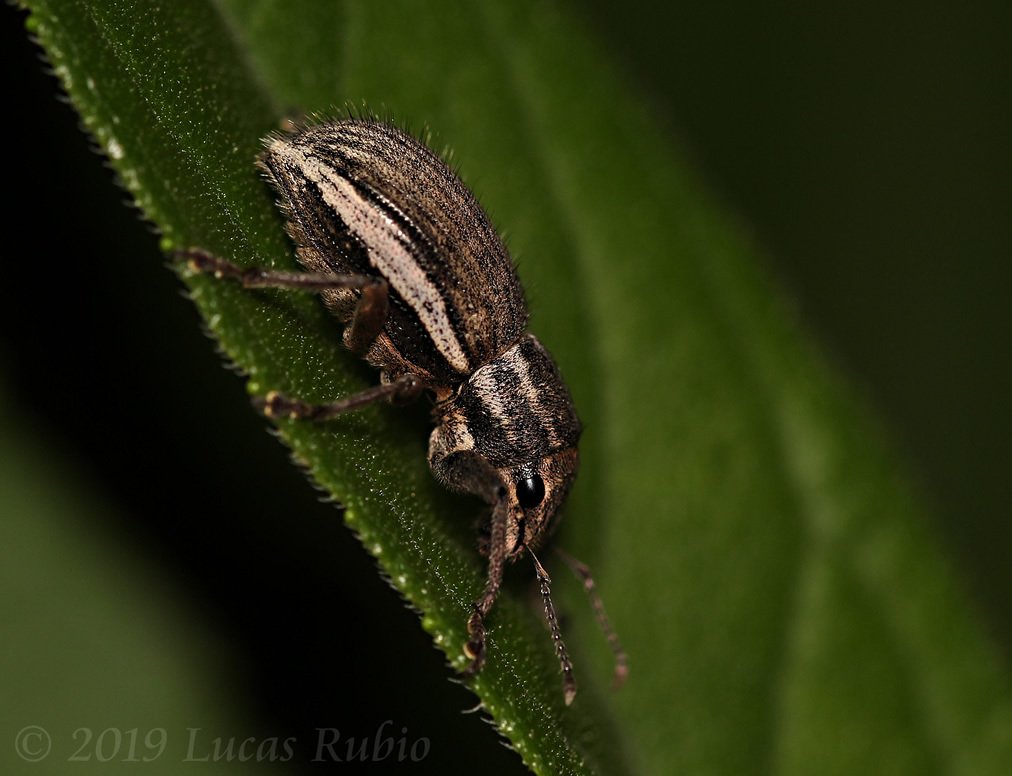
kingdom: Animalia
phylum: Arthropoda
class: Insecta
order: Coleoptera
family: Curculionidae
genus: Naupactus
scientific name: Naupactus leucoloma
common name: Whitefringed beetle
